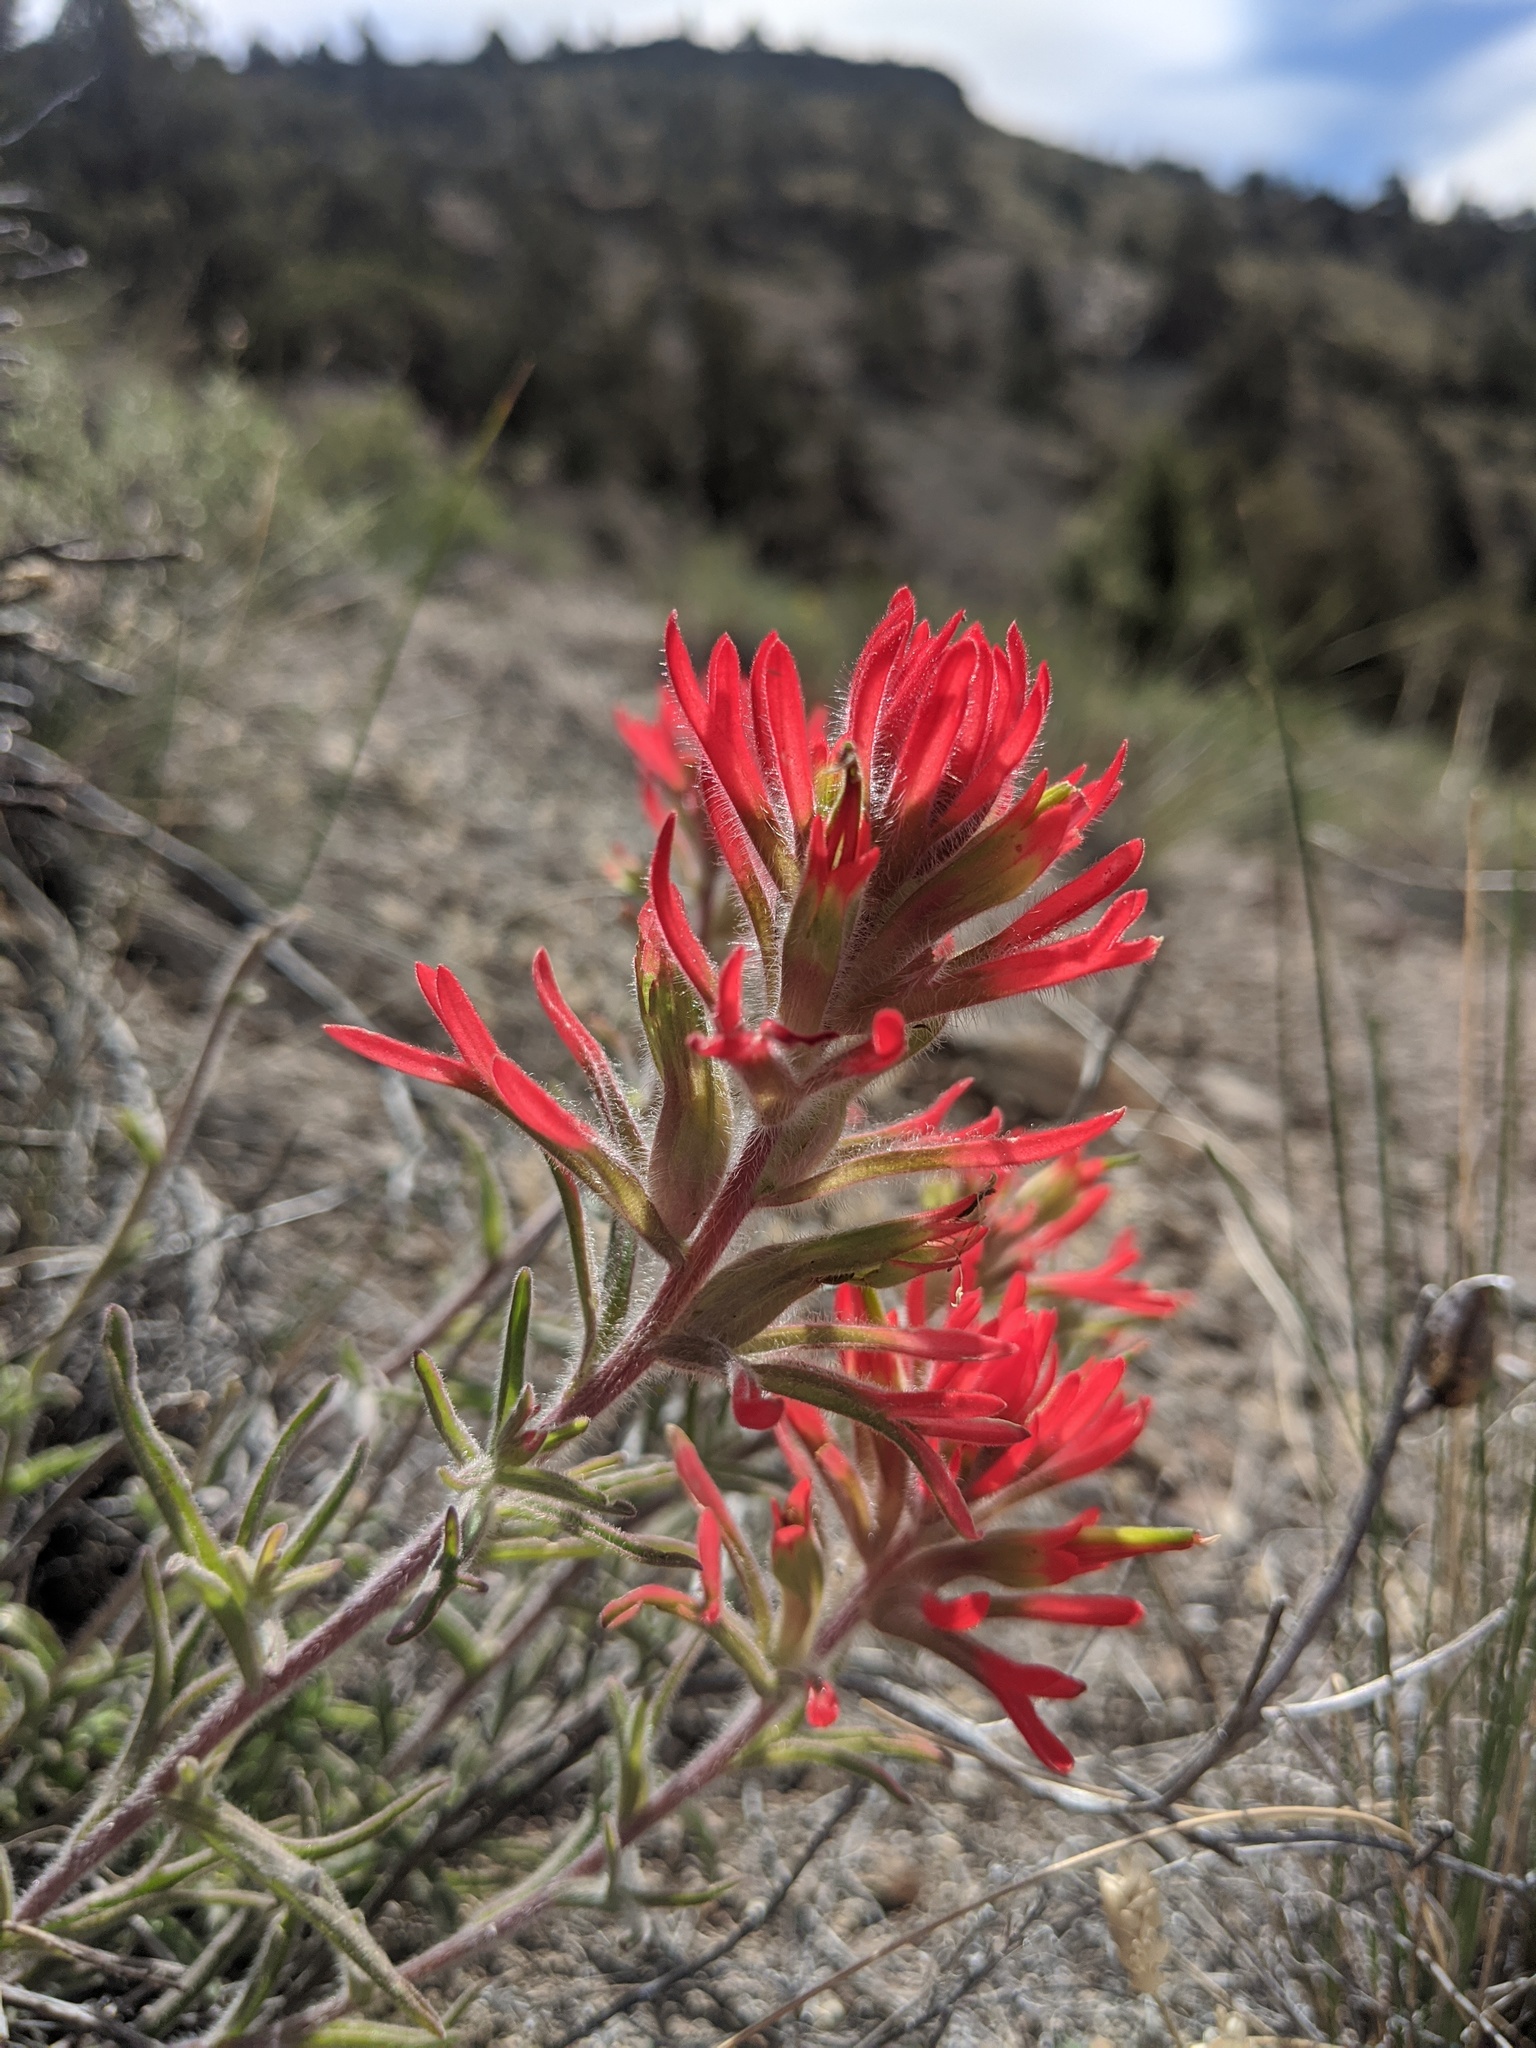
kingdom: Plantae
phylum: Tracheophyta
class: Magnoliopsida
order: Lamiales
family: Orobanchaceae
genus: Castilleja
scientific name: Castilleja chromosa
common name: Desert paintbrush
